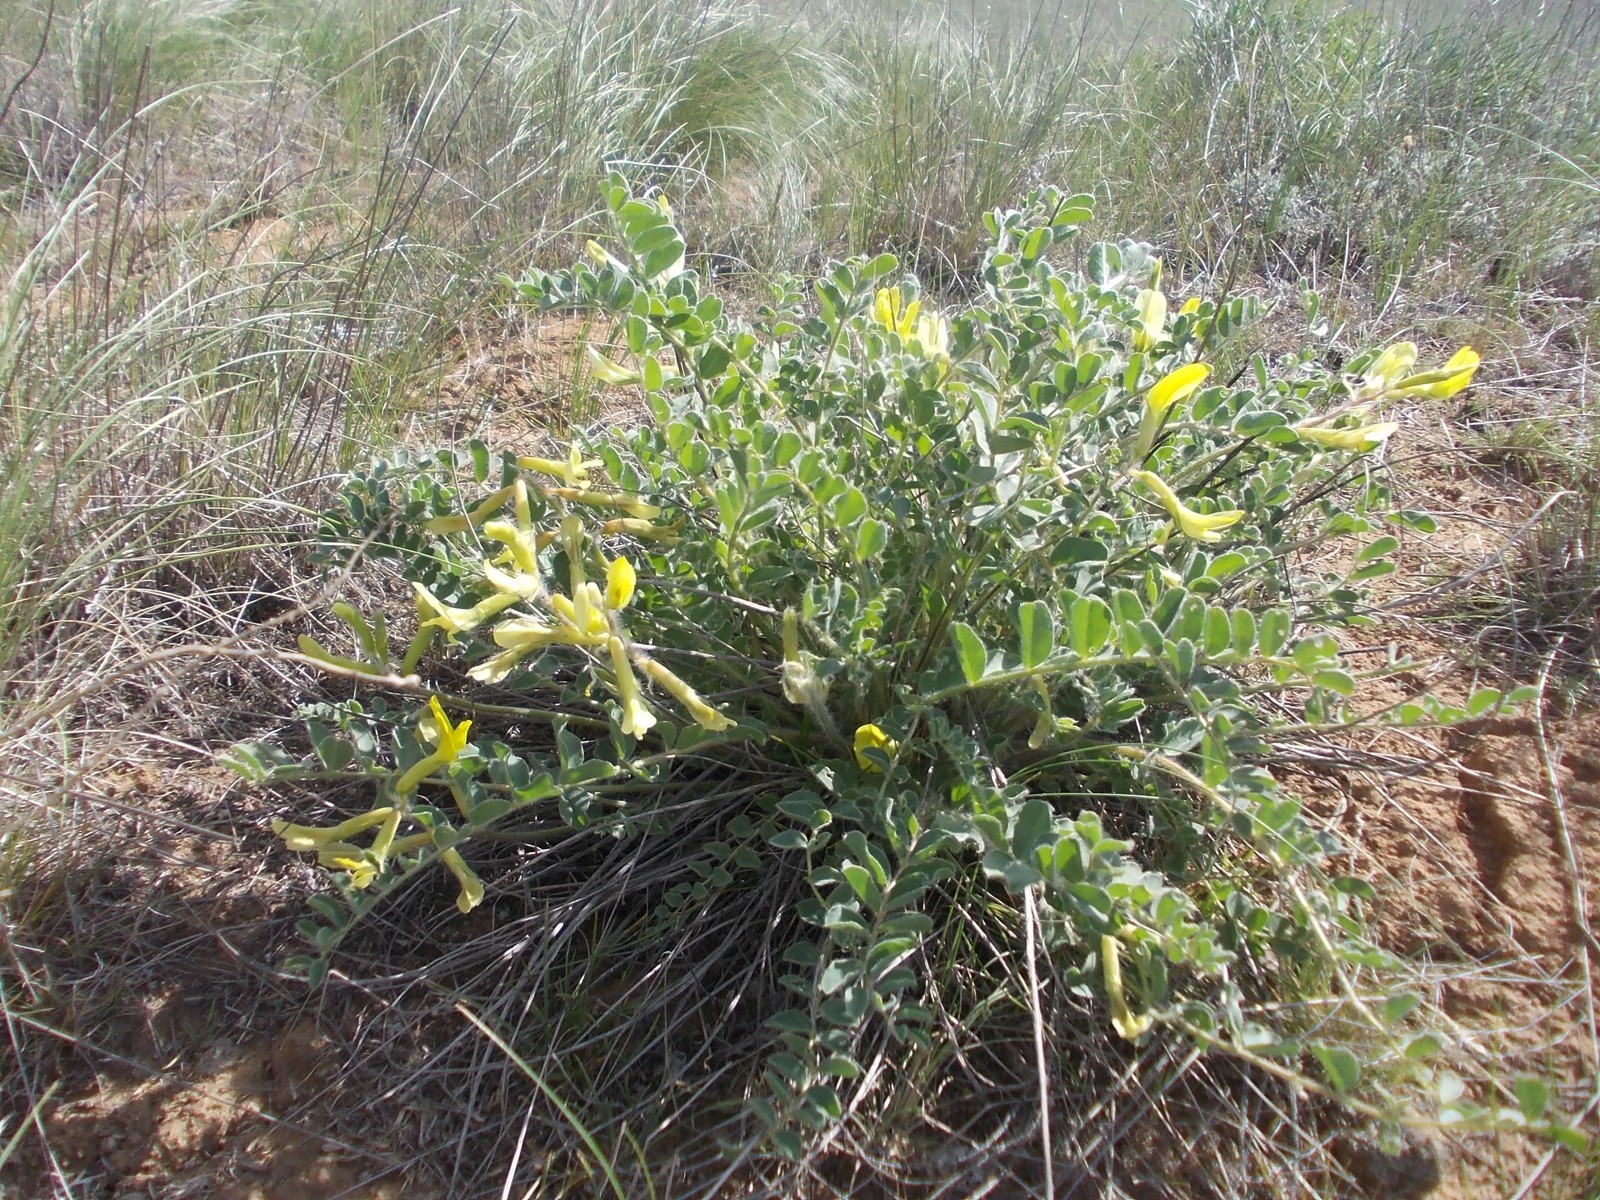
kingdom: Plantae
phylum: Tracheophyta
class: Magnoliopsida
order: Fabales
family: Fabaceae
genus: Astragalus
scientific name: Astragalus longipetalus
